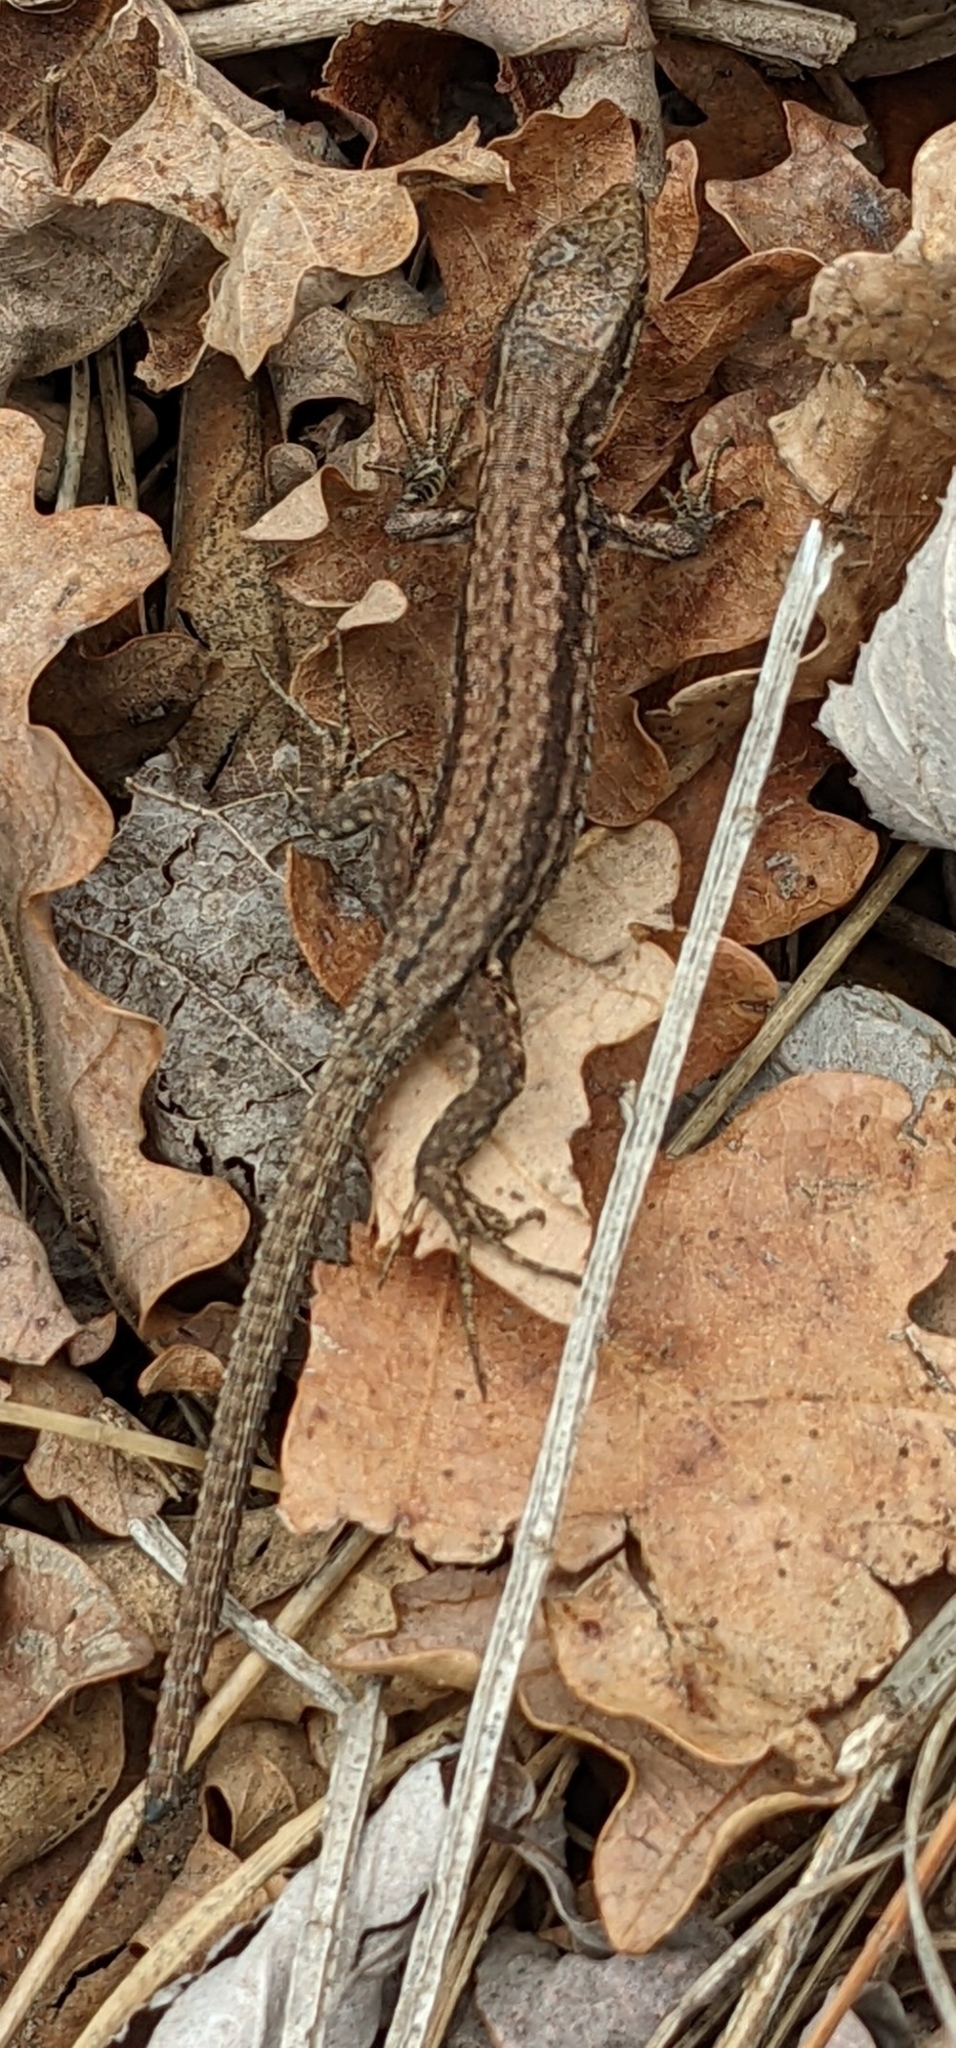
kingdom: Animalia
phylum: Chordata
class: Squamata
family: Lacertidae
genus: Podarcis
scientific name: Podarcis muralis
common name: Common wall lizard
